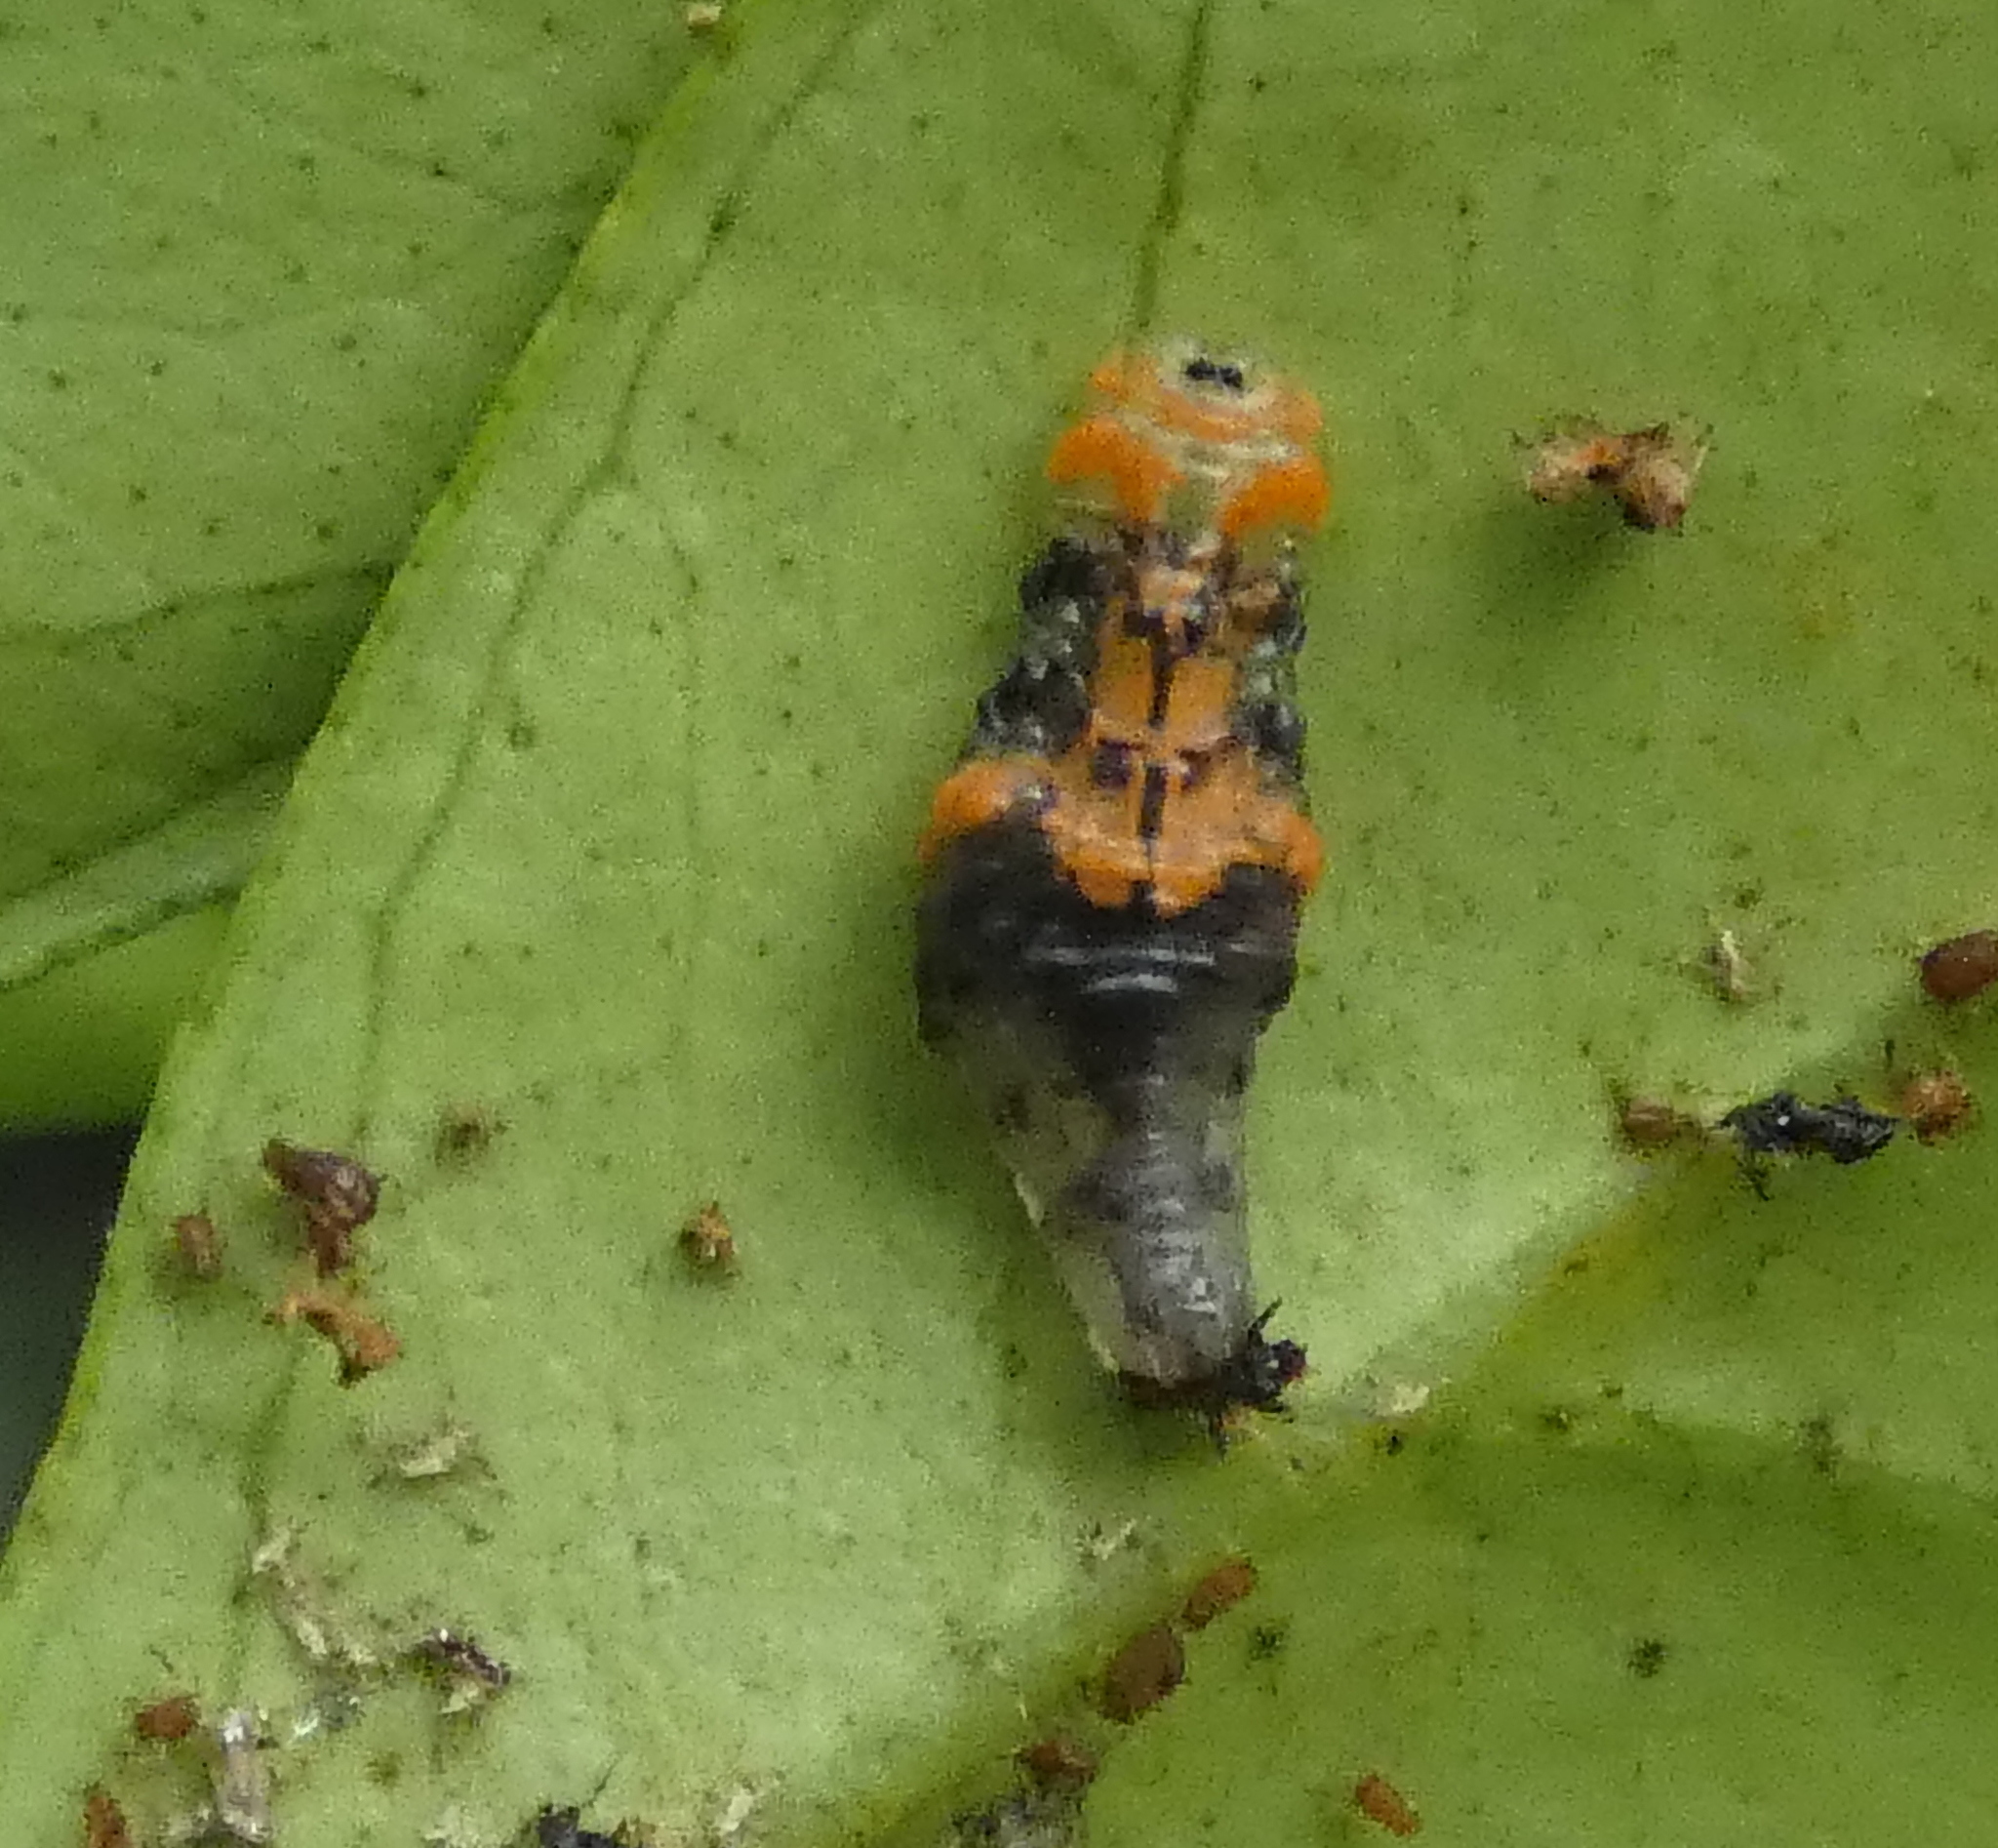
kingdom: Animalia
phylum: Arthropoda
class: Insecta
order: Diptera
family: Syrphidae
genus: Ocyptamus
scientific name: Ocyptamus gastrostactus
